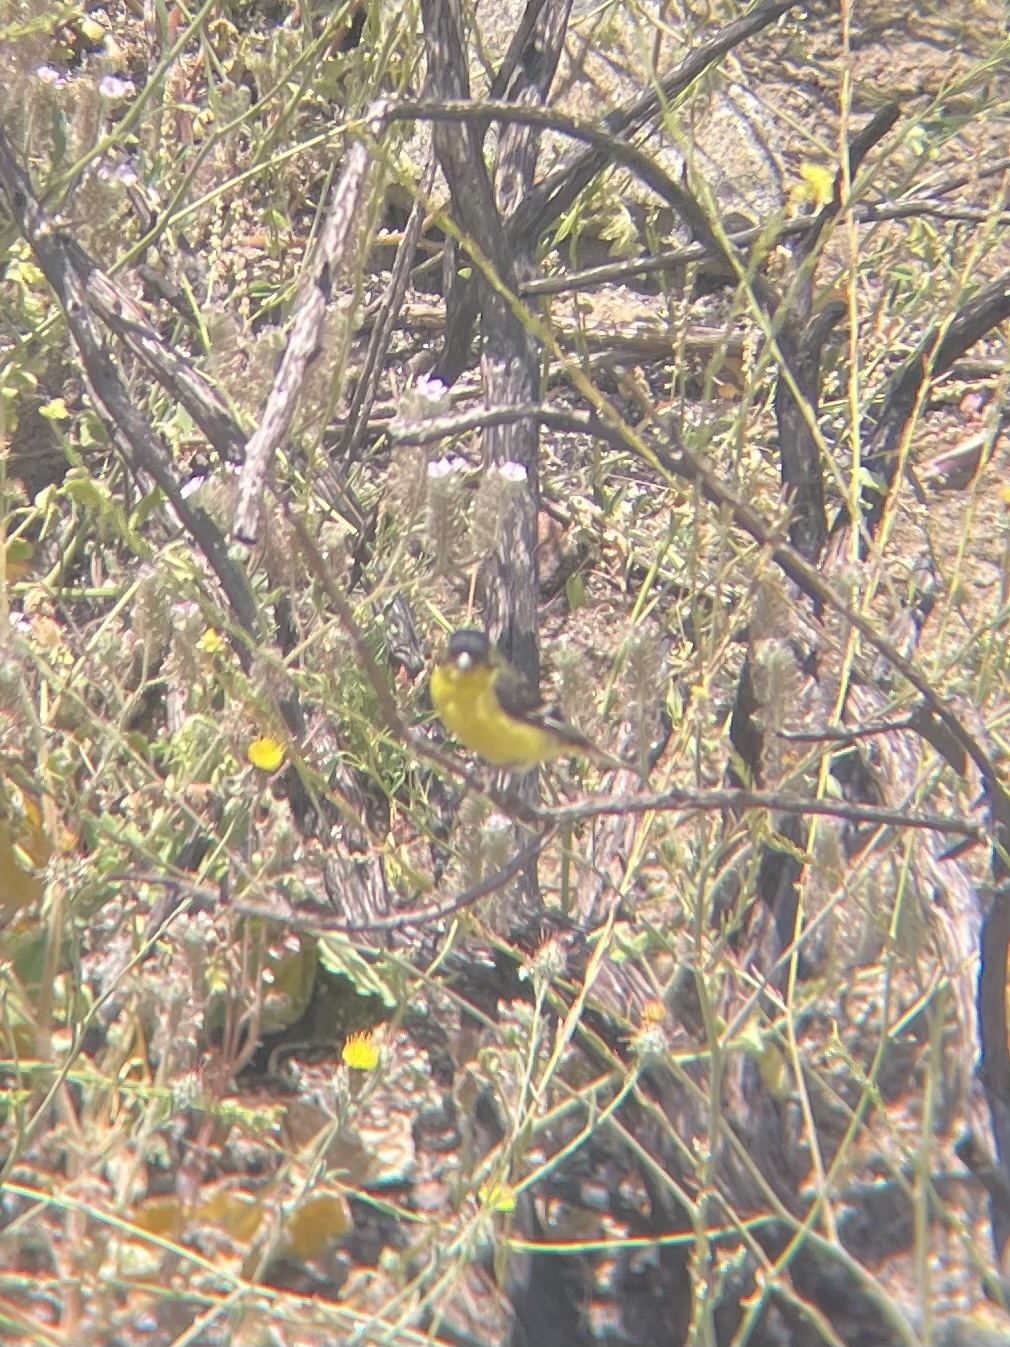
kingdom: Animalia
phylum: Chordata
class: Aves
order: Passeriformes
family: Fringillidae
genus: Spinus
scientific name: Spinus psaltria
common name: Lesser goldfinch
